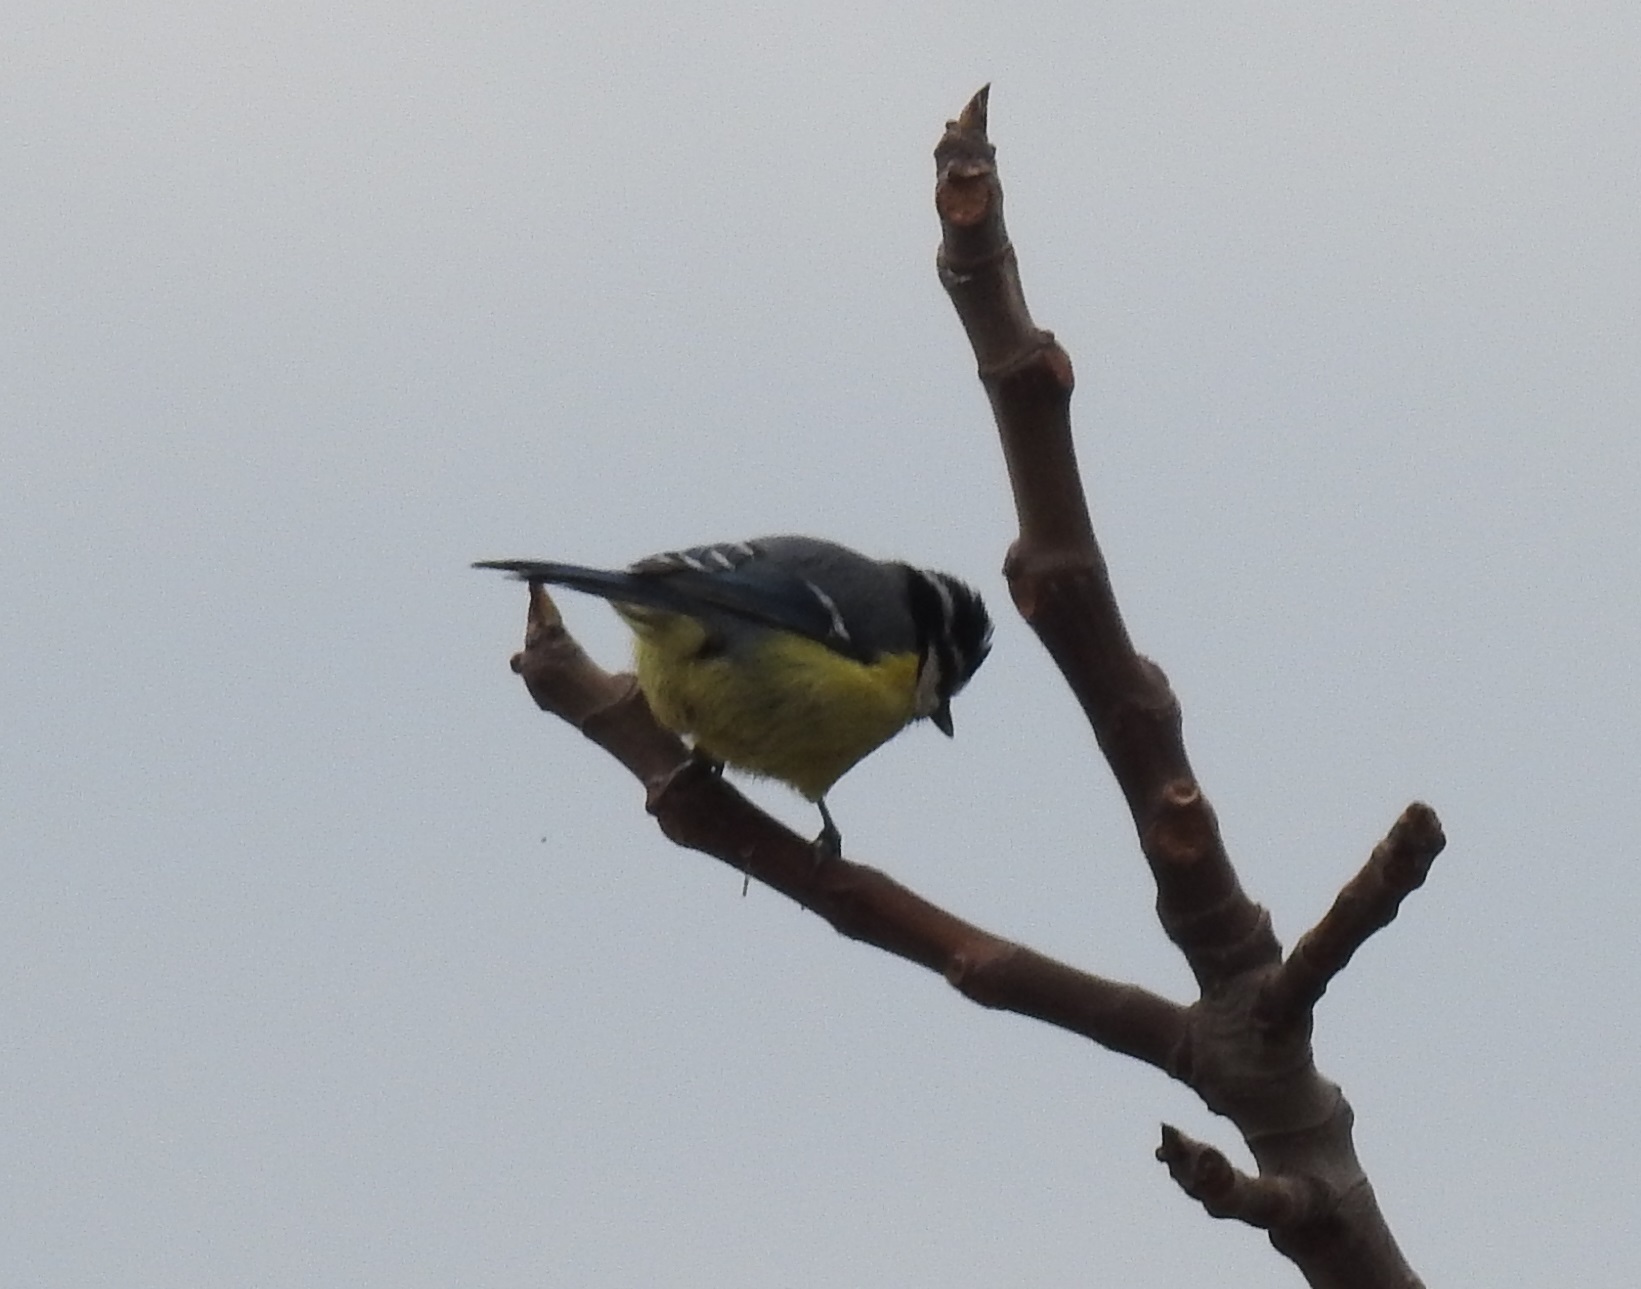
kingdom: Animalia
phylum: Chordata
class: Aves
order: Passeriformes
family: Paridae
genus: Cyanistes
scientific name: Cyanistes teneriffae
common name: African blue tit
